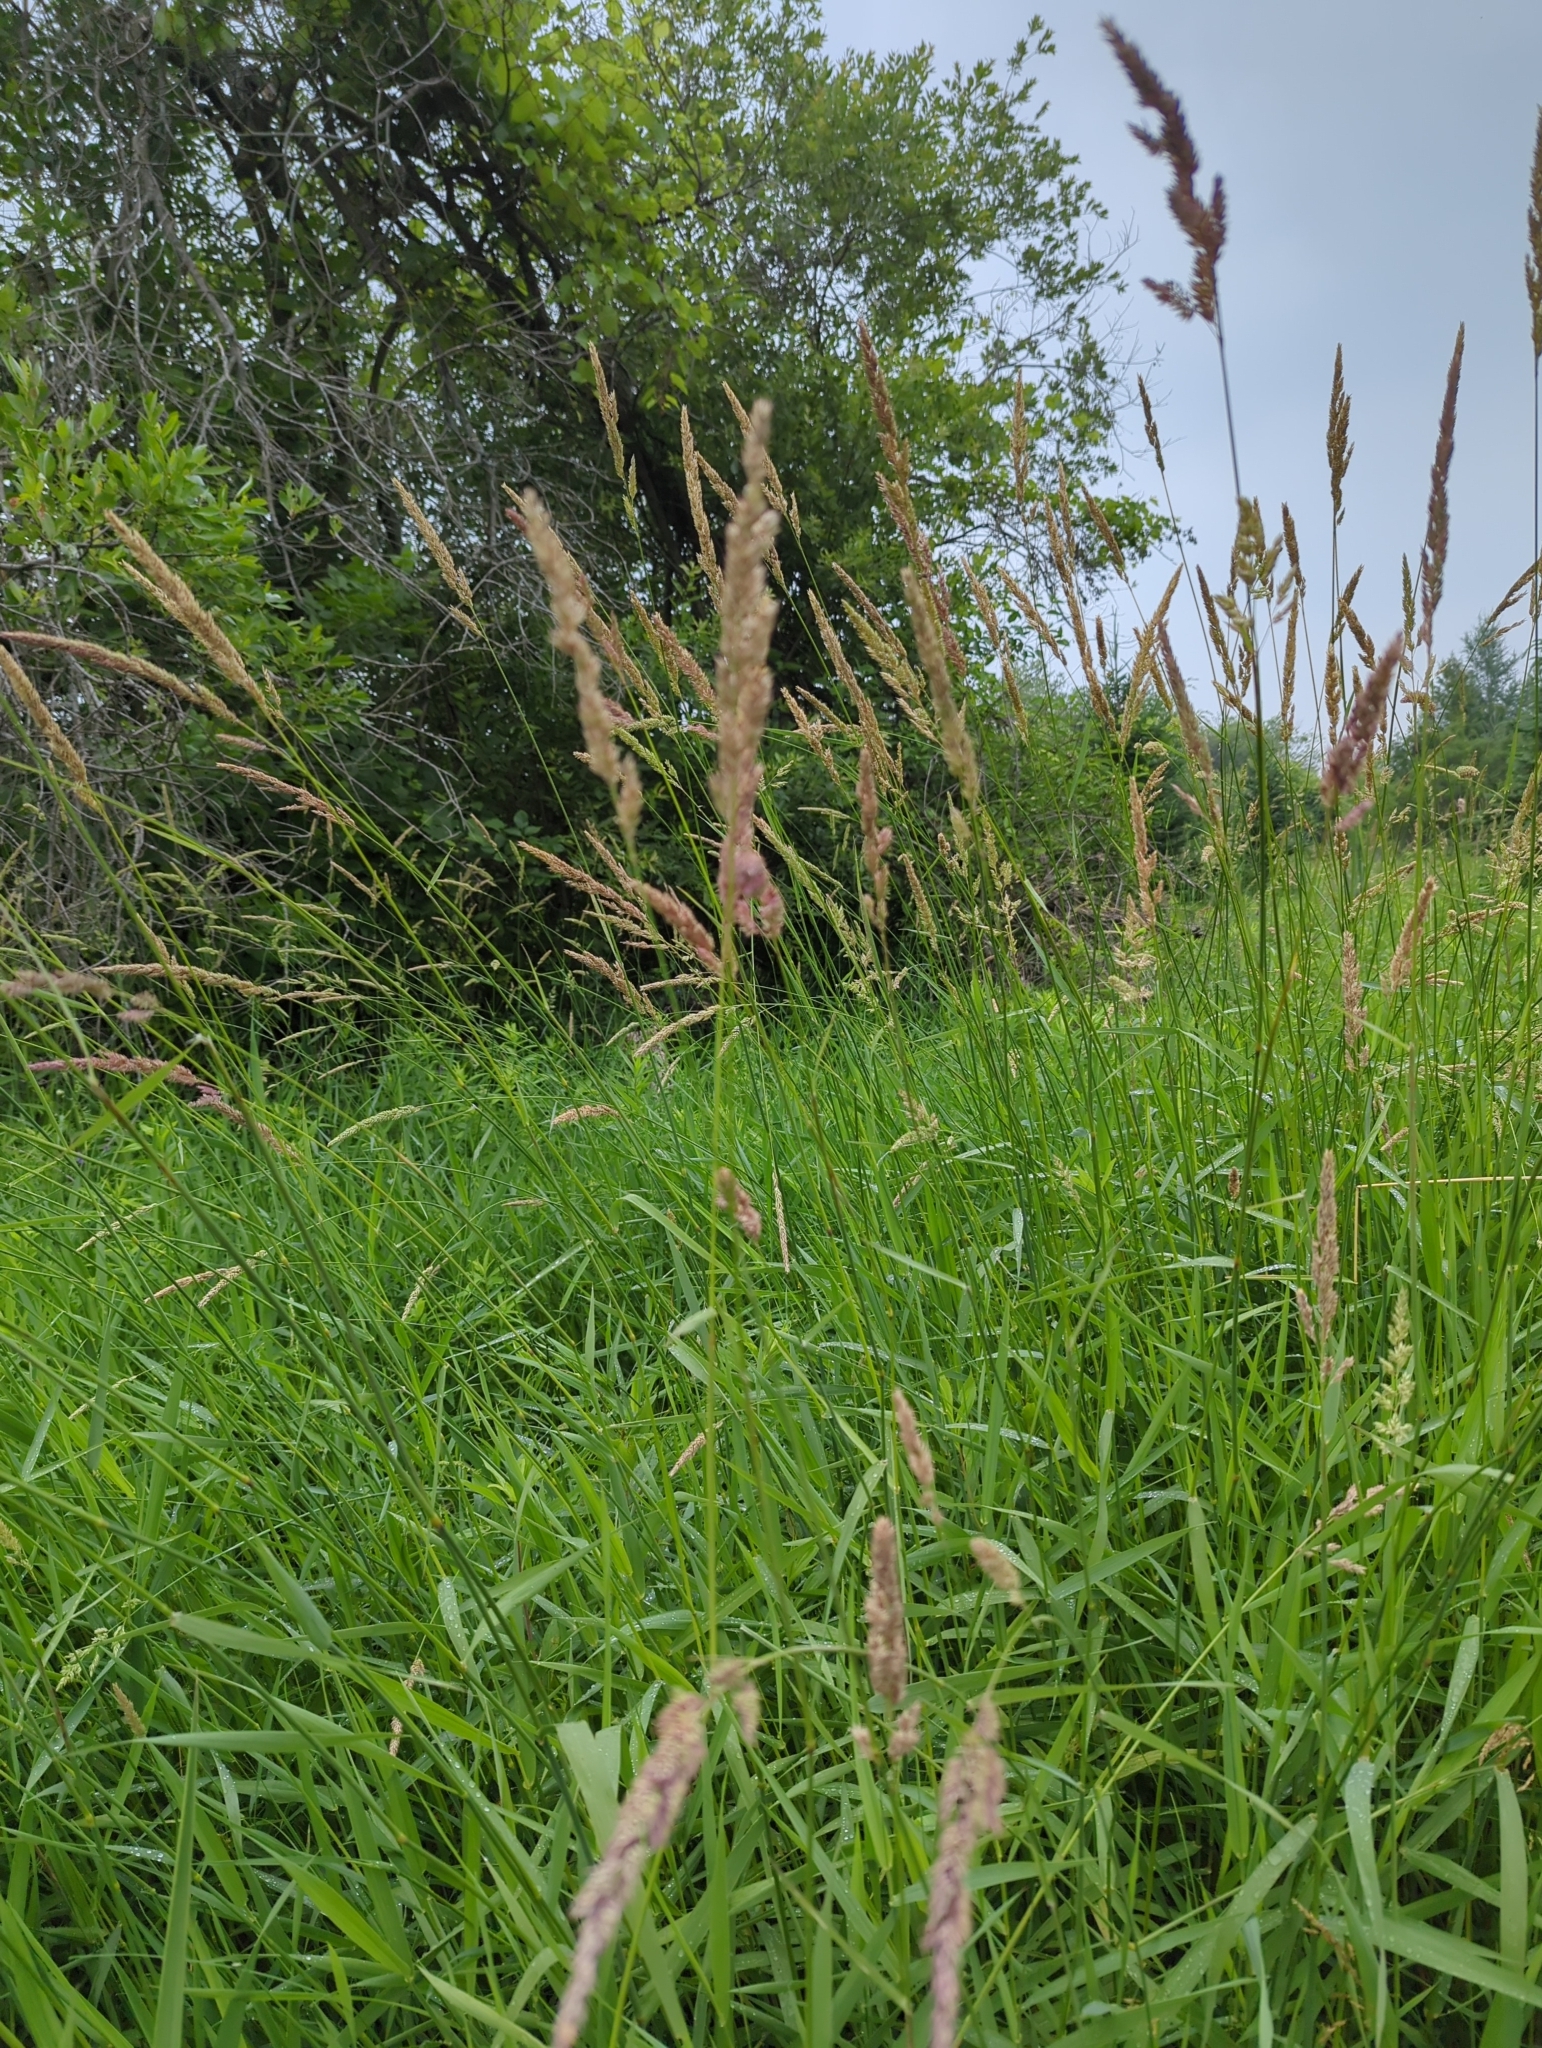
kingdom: Plantae
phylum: Tracheophyta
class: Liliopsida
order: Poales
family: Poaceae
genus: Phalaris
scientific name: Phalaris arundinacea
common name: Reed canary-grass
